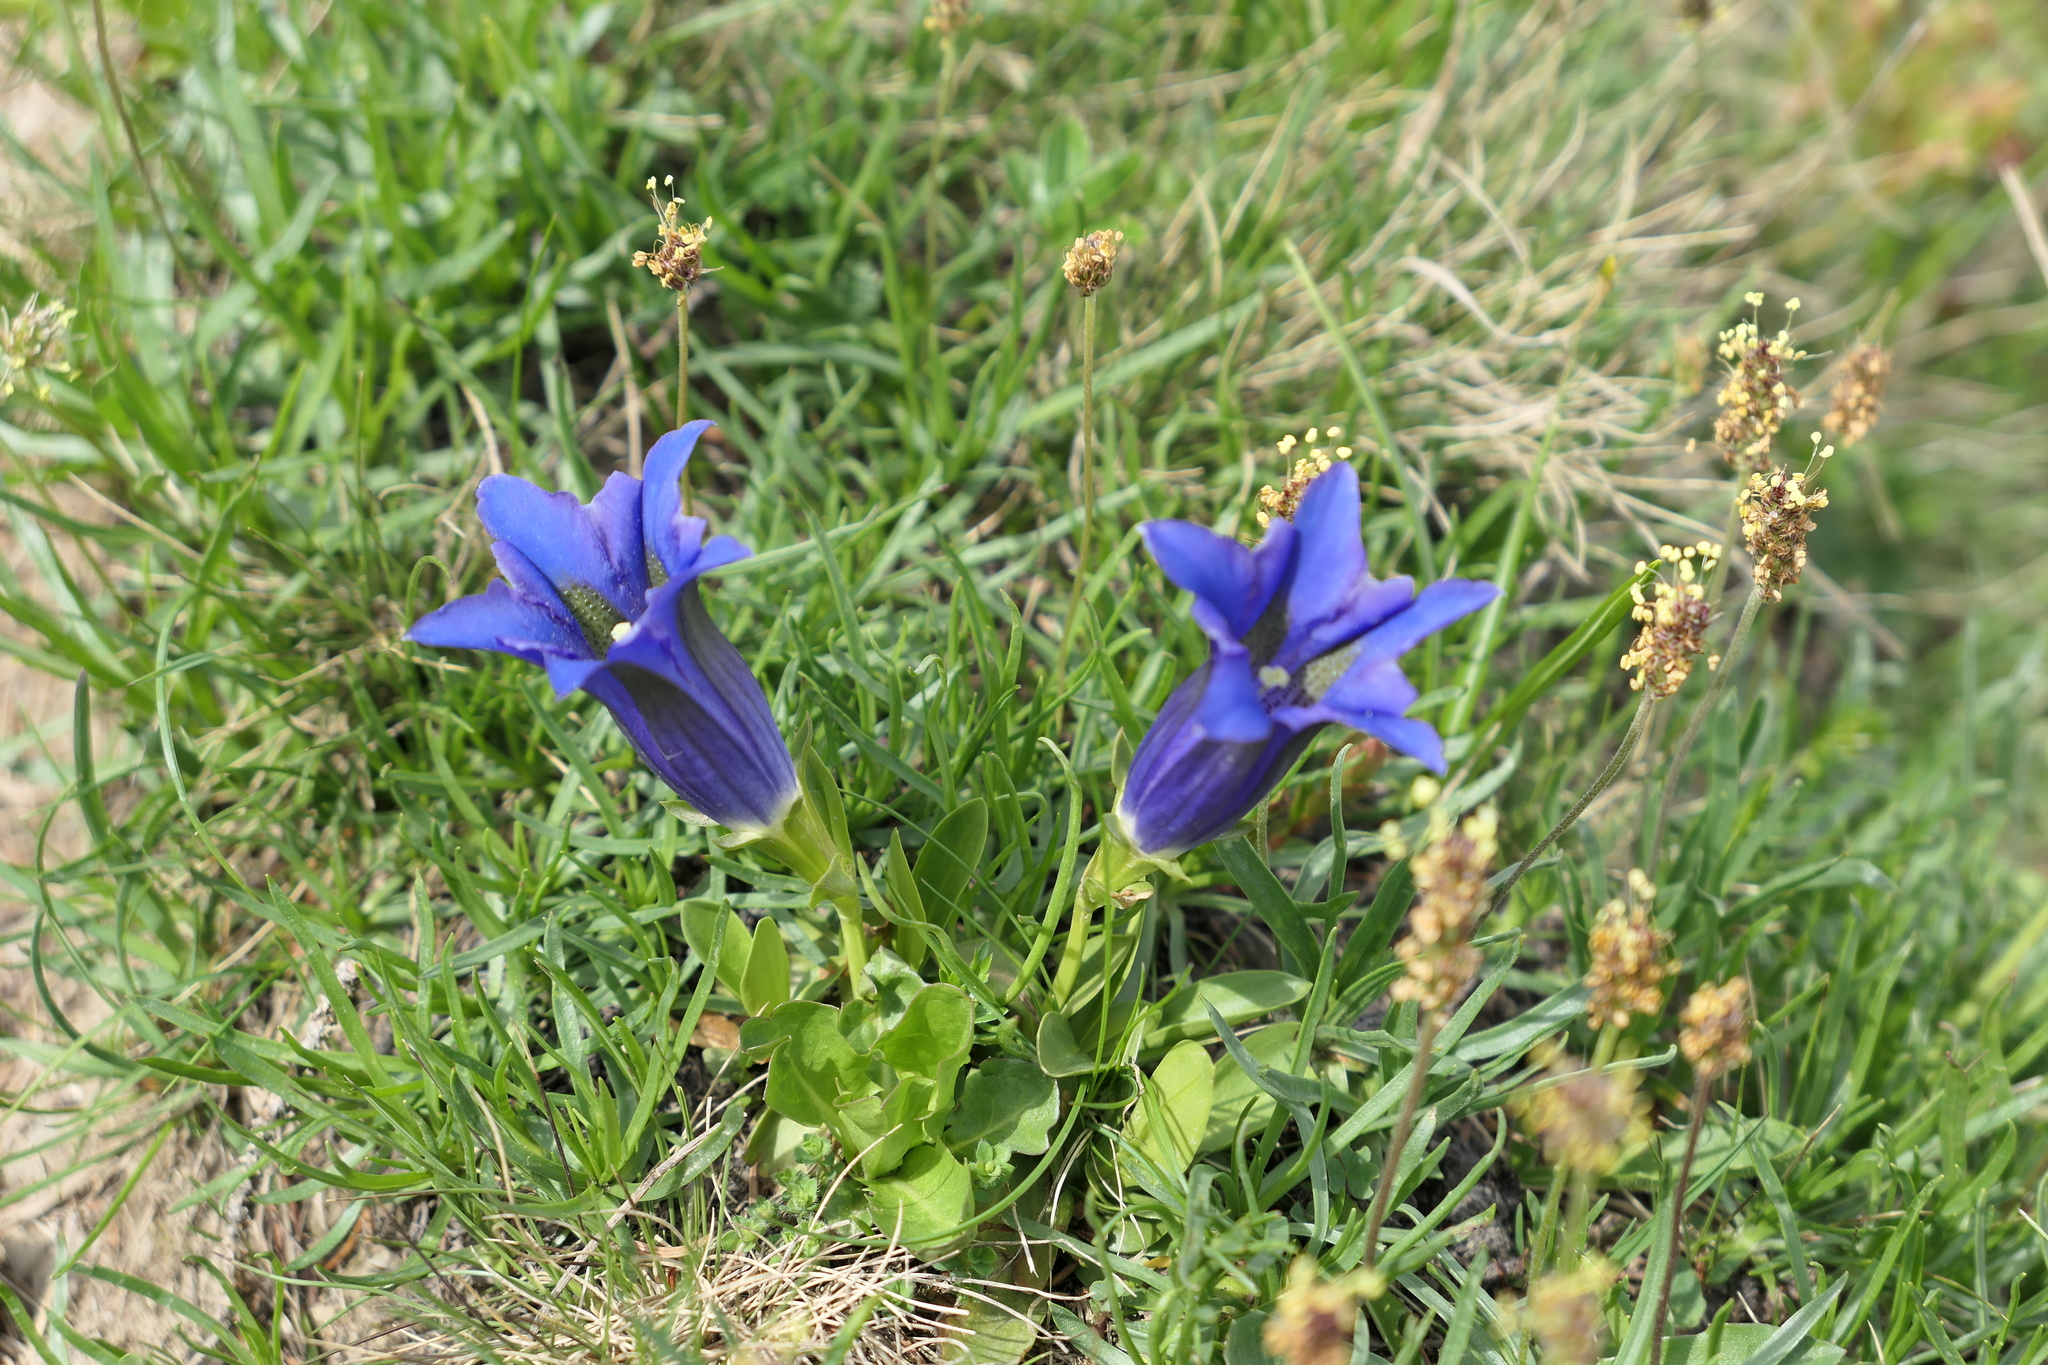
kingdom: Plantae
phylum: Tracheophyta
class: Magnoliopsida
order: Gentianales
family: Gentianaceae
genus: Gentiana
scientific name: Gentiana acaulis
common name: Trumpet gentian
